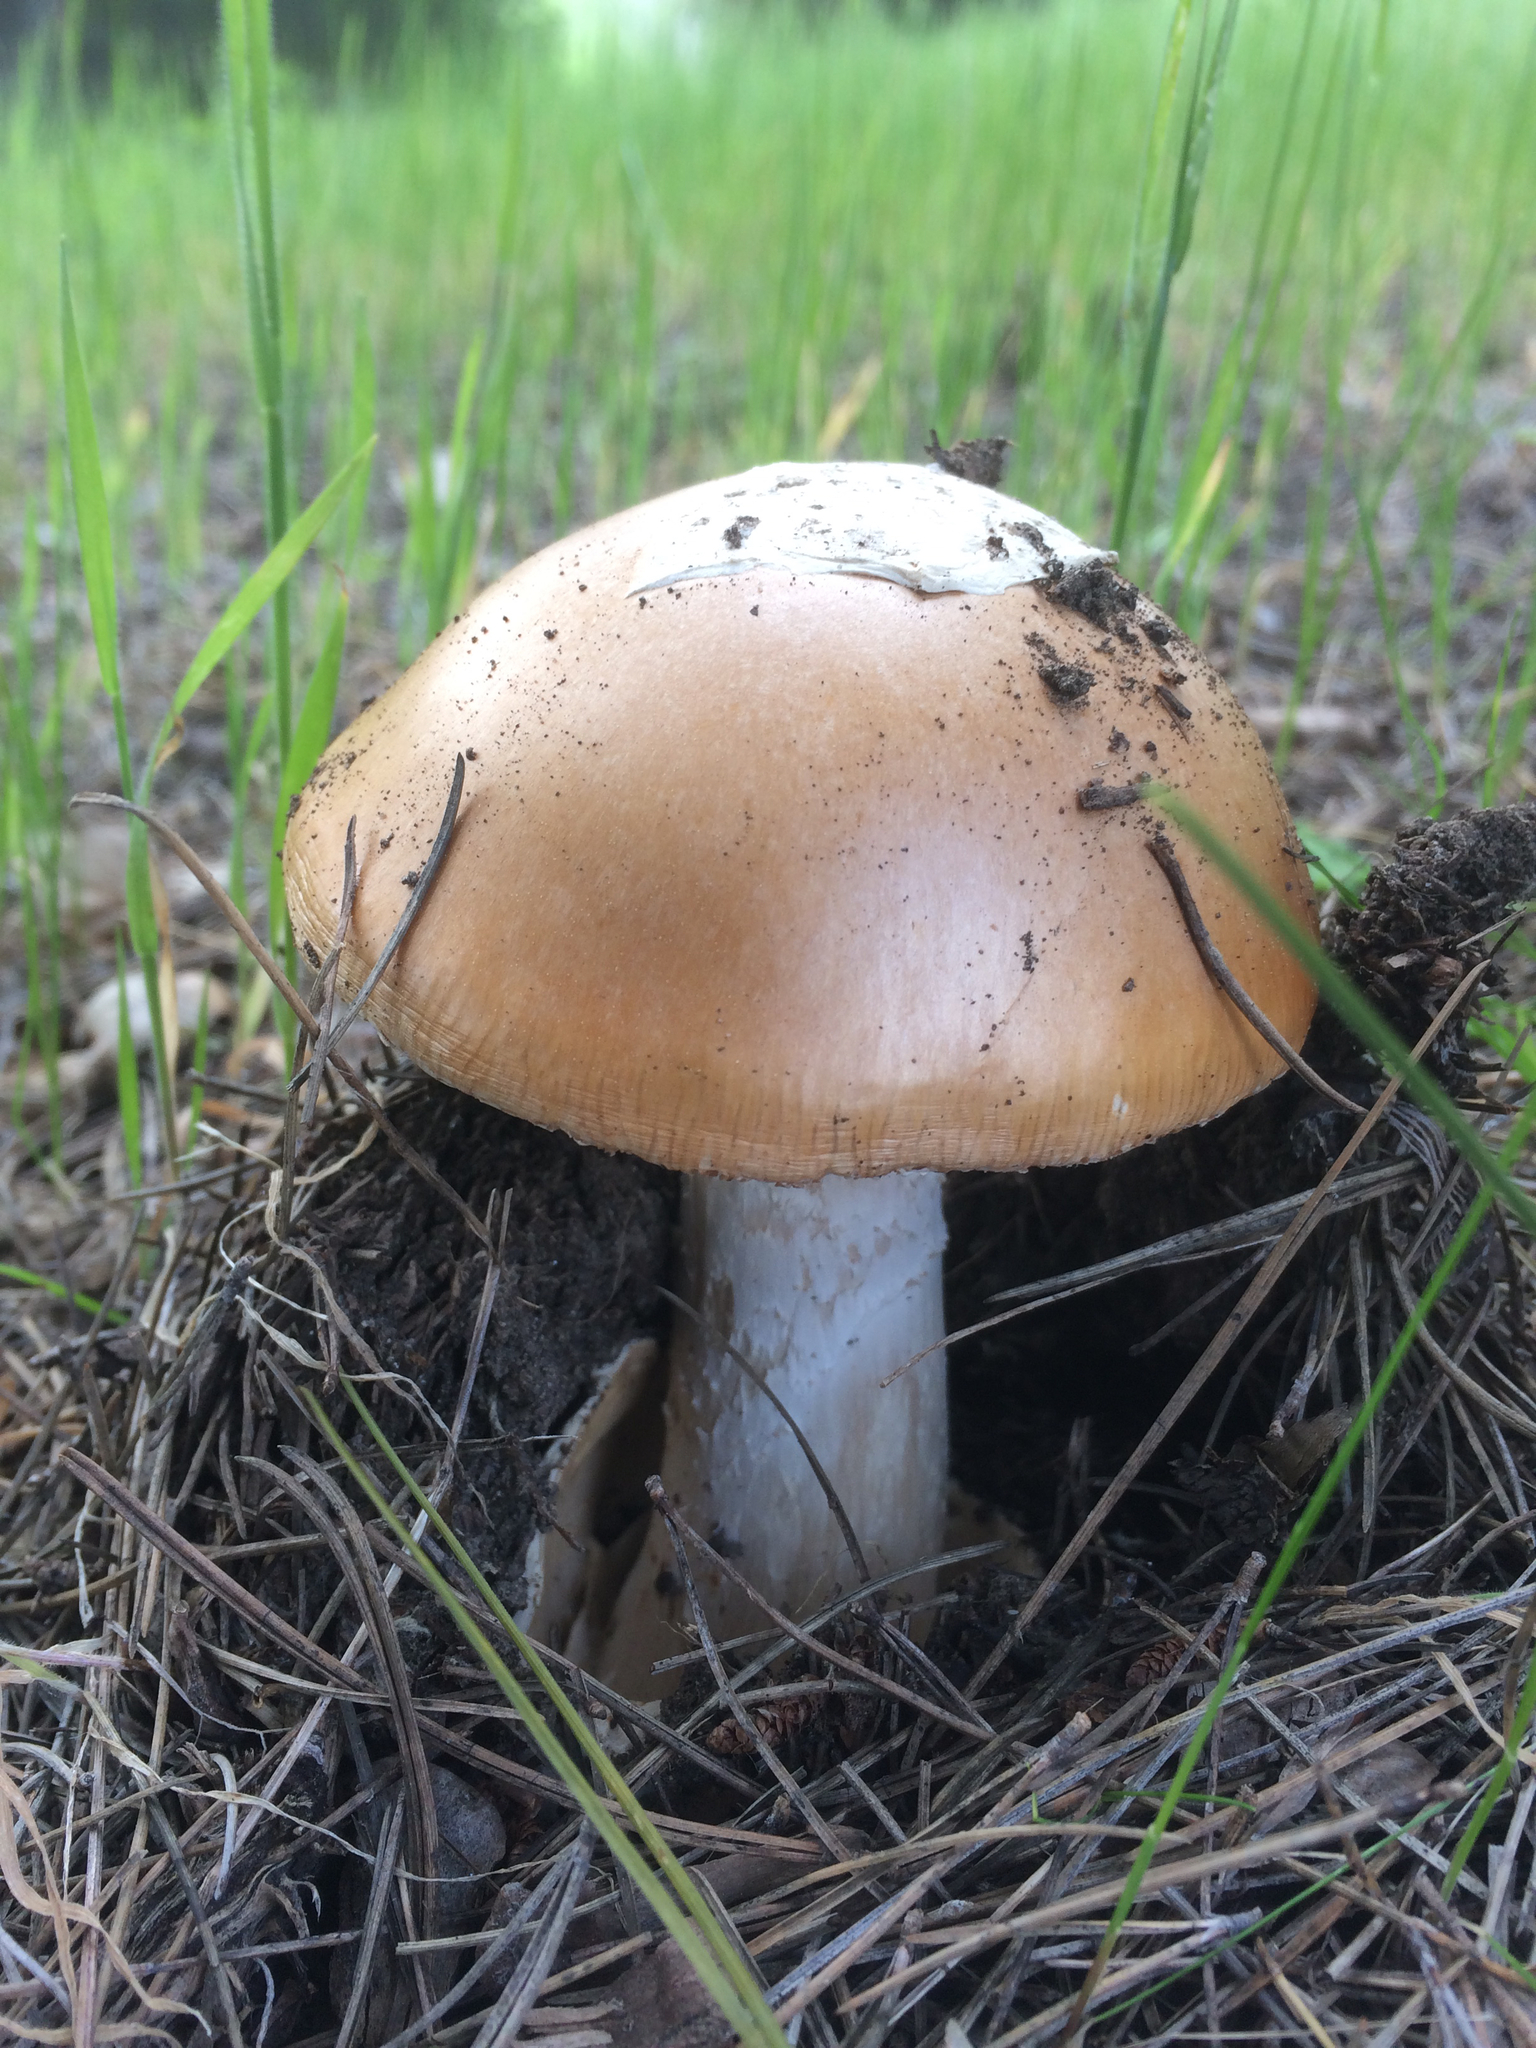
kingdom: Fungi
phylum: Basidiomycota
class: Agaricomycetes
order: Agaricales
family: Amanitaceae
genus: Amanita
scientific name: Amanita velosa
